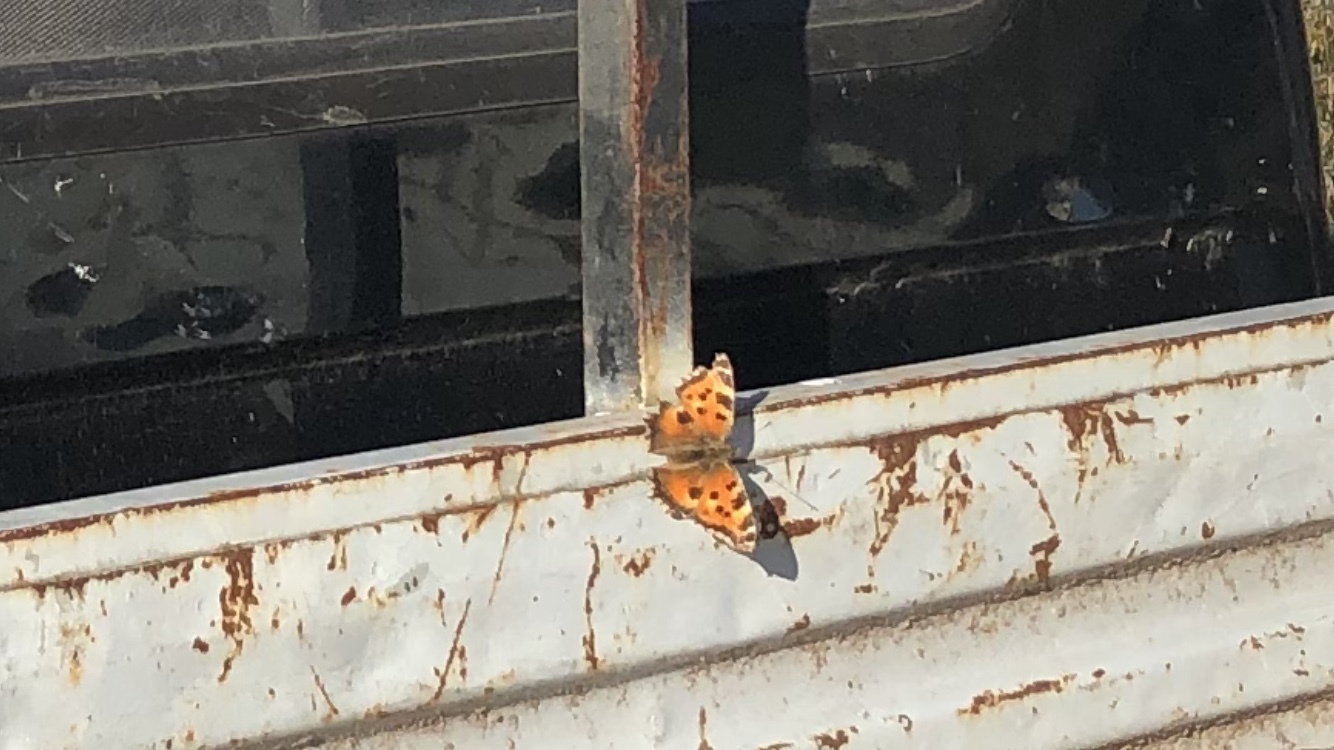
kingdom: Animalia
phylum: Arthropoda
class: Insecta
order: Lepidoptera
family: Nymphalidae
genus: Nymphalis
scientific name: Nymphalis xanthomelas
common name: Scarce tortoiseshell
